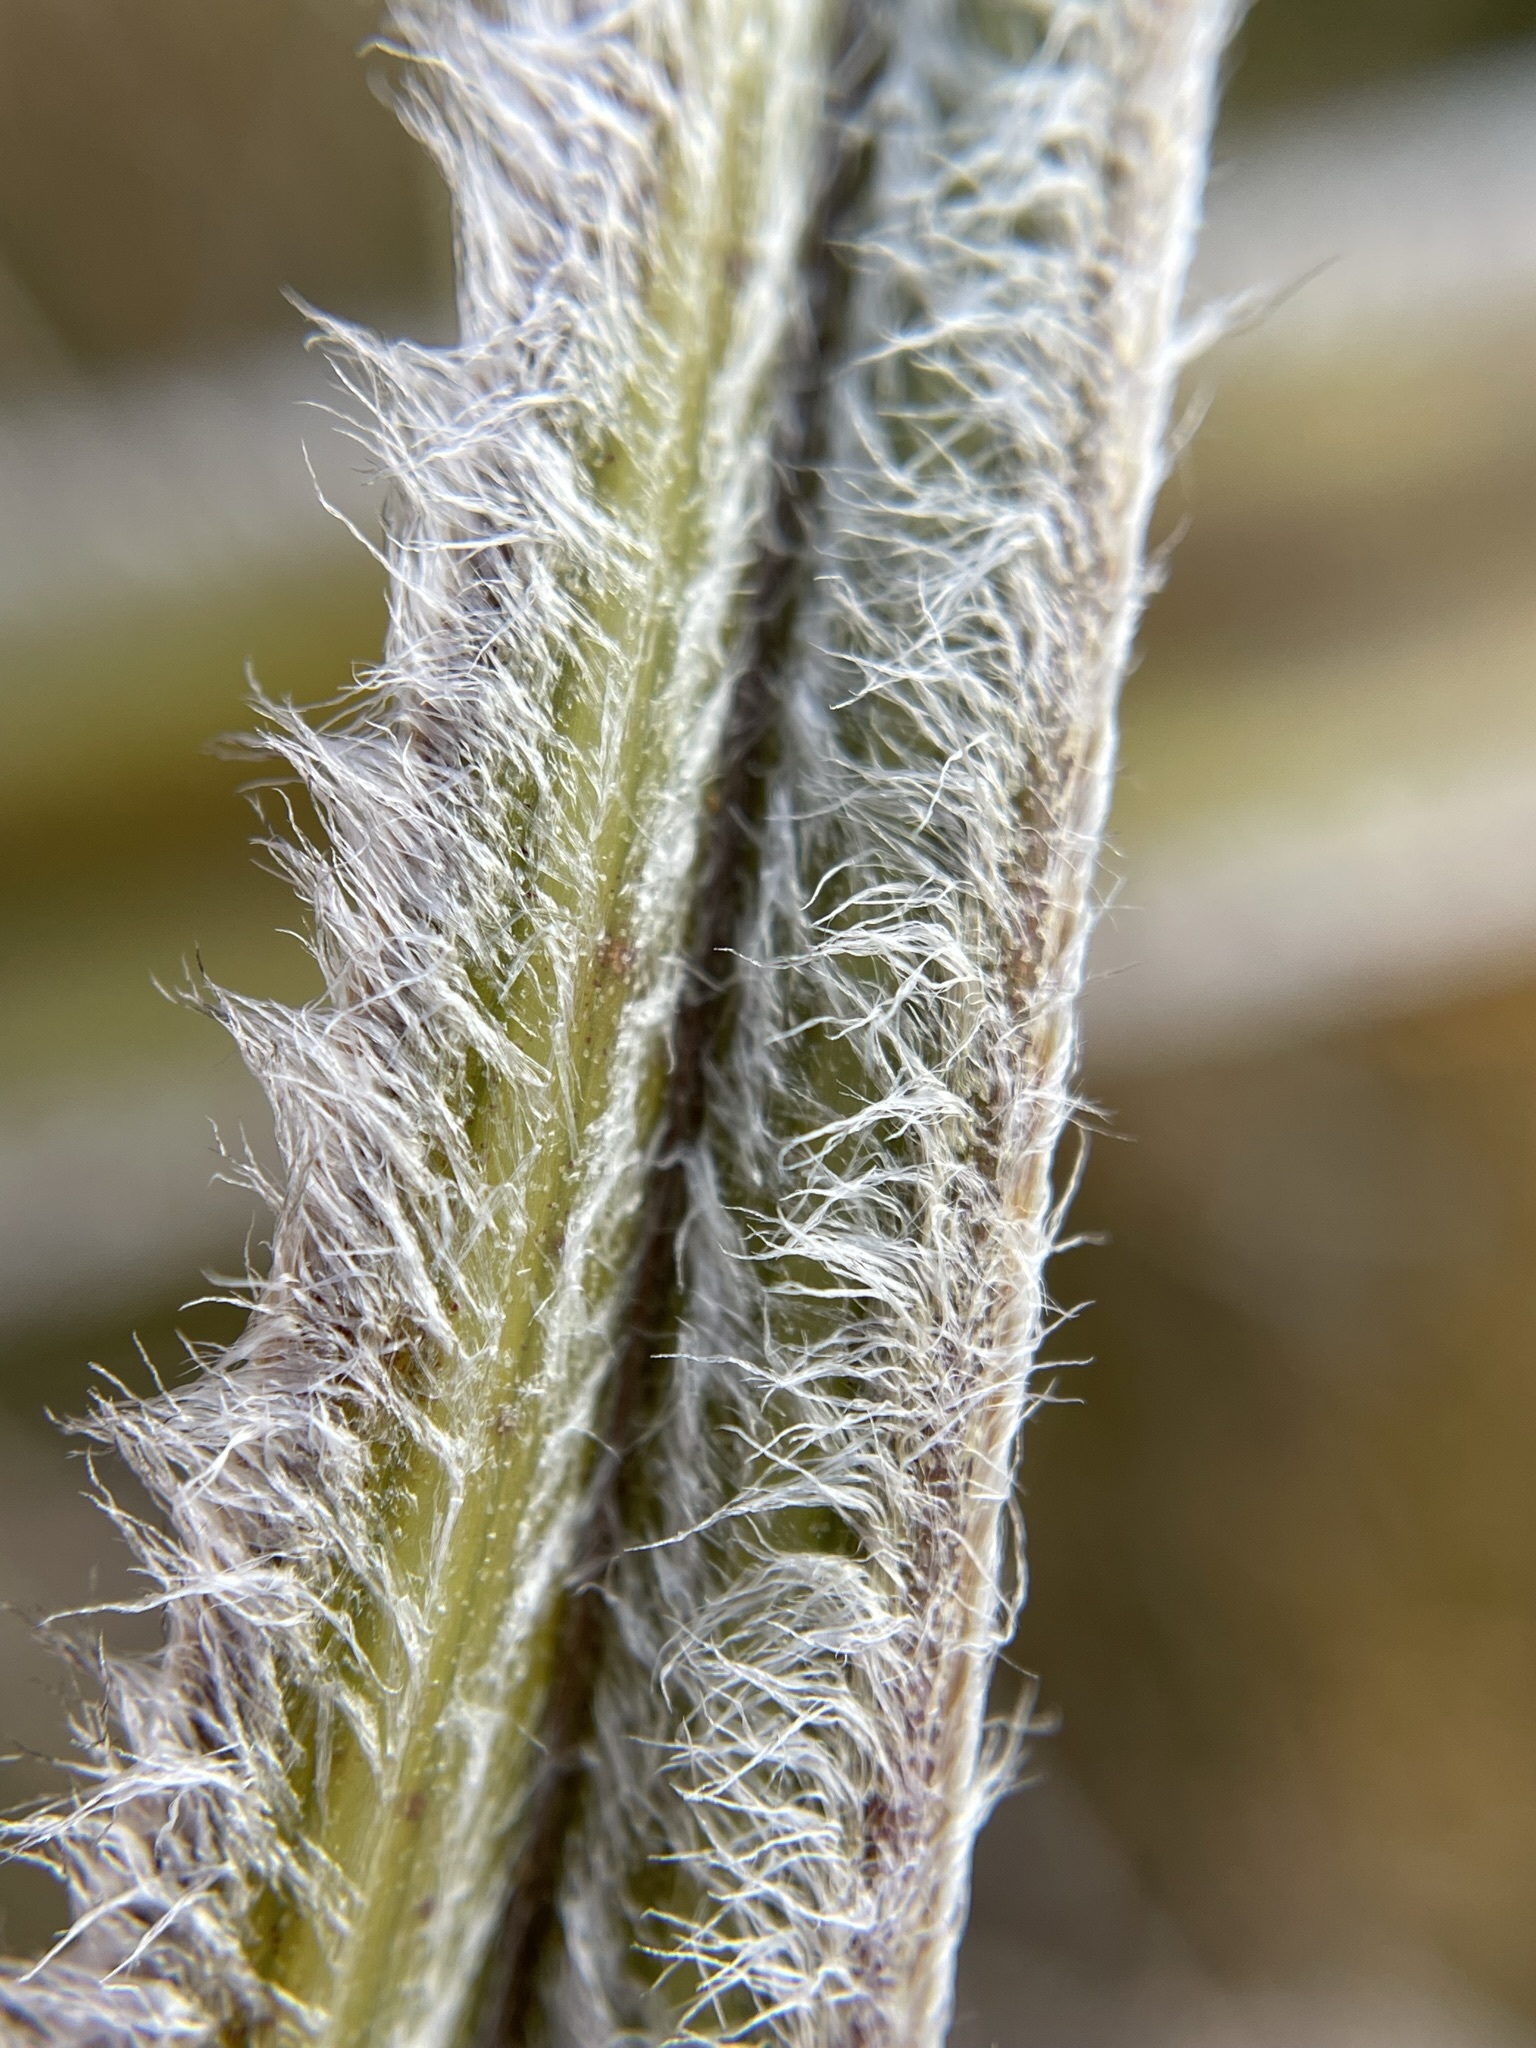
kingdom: Plantae
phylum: Tracheophyta
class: Liliopsida
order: Asparagales
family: Asteliaceae
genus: Astelia
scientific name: Astelia nervosa
